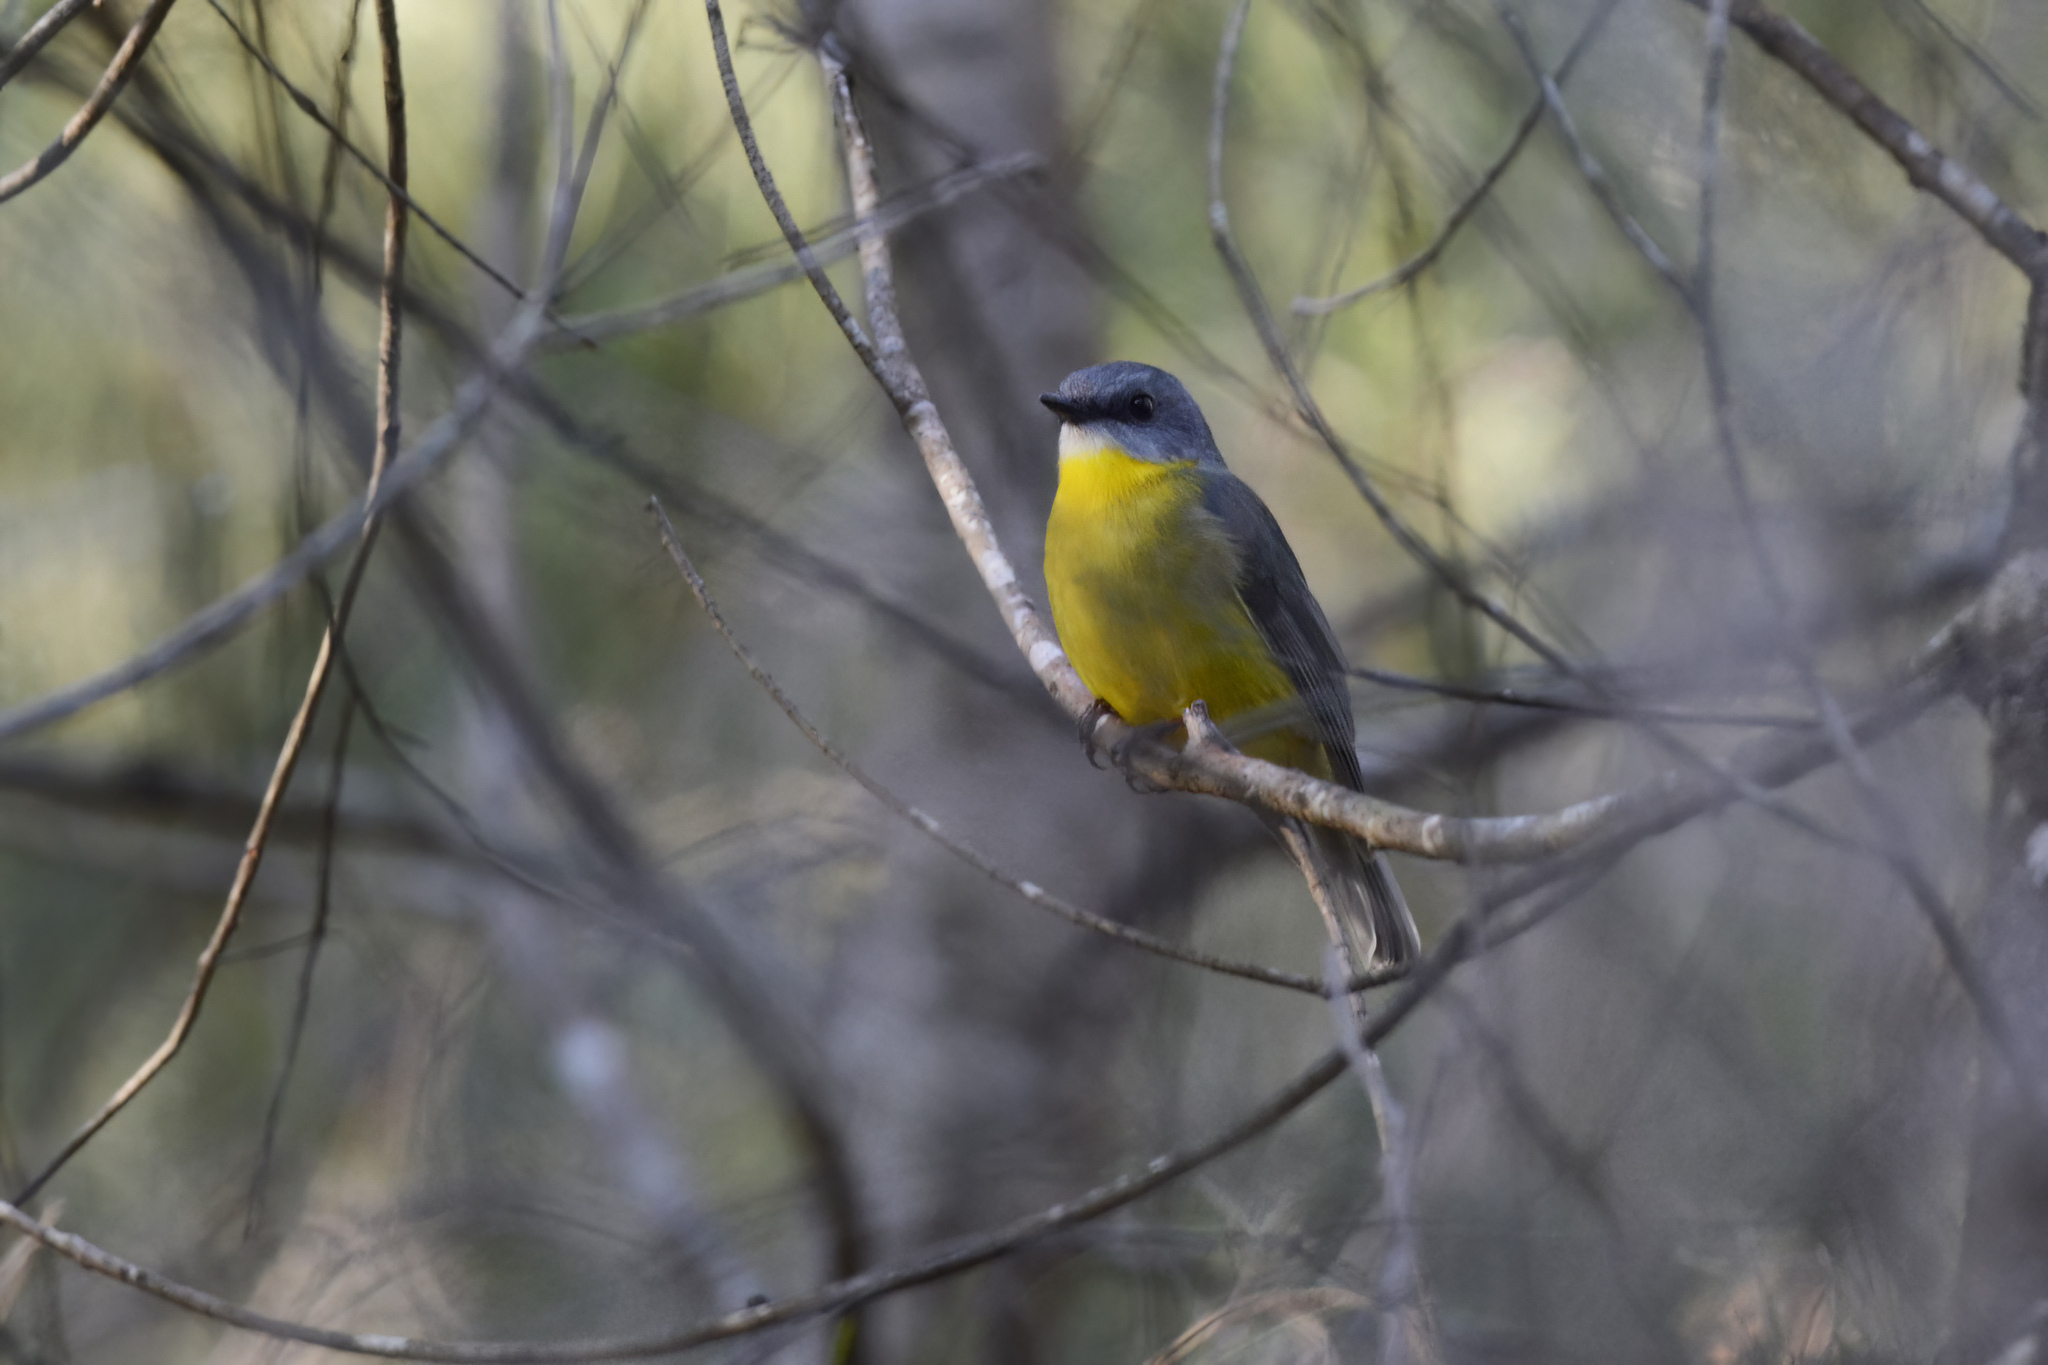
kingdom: Animalia
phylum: Chordata
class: Aves
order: Passeriformes
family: Petroicidae
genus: Eopsaltria
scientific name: Eopsaltria australis
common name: Eastern yellow robin
